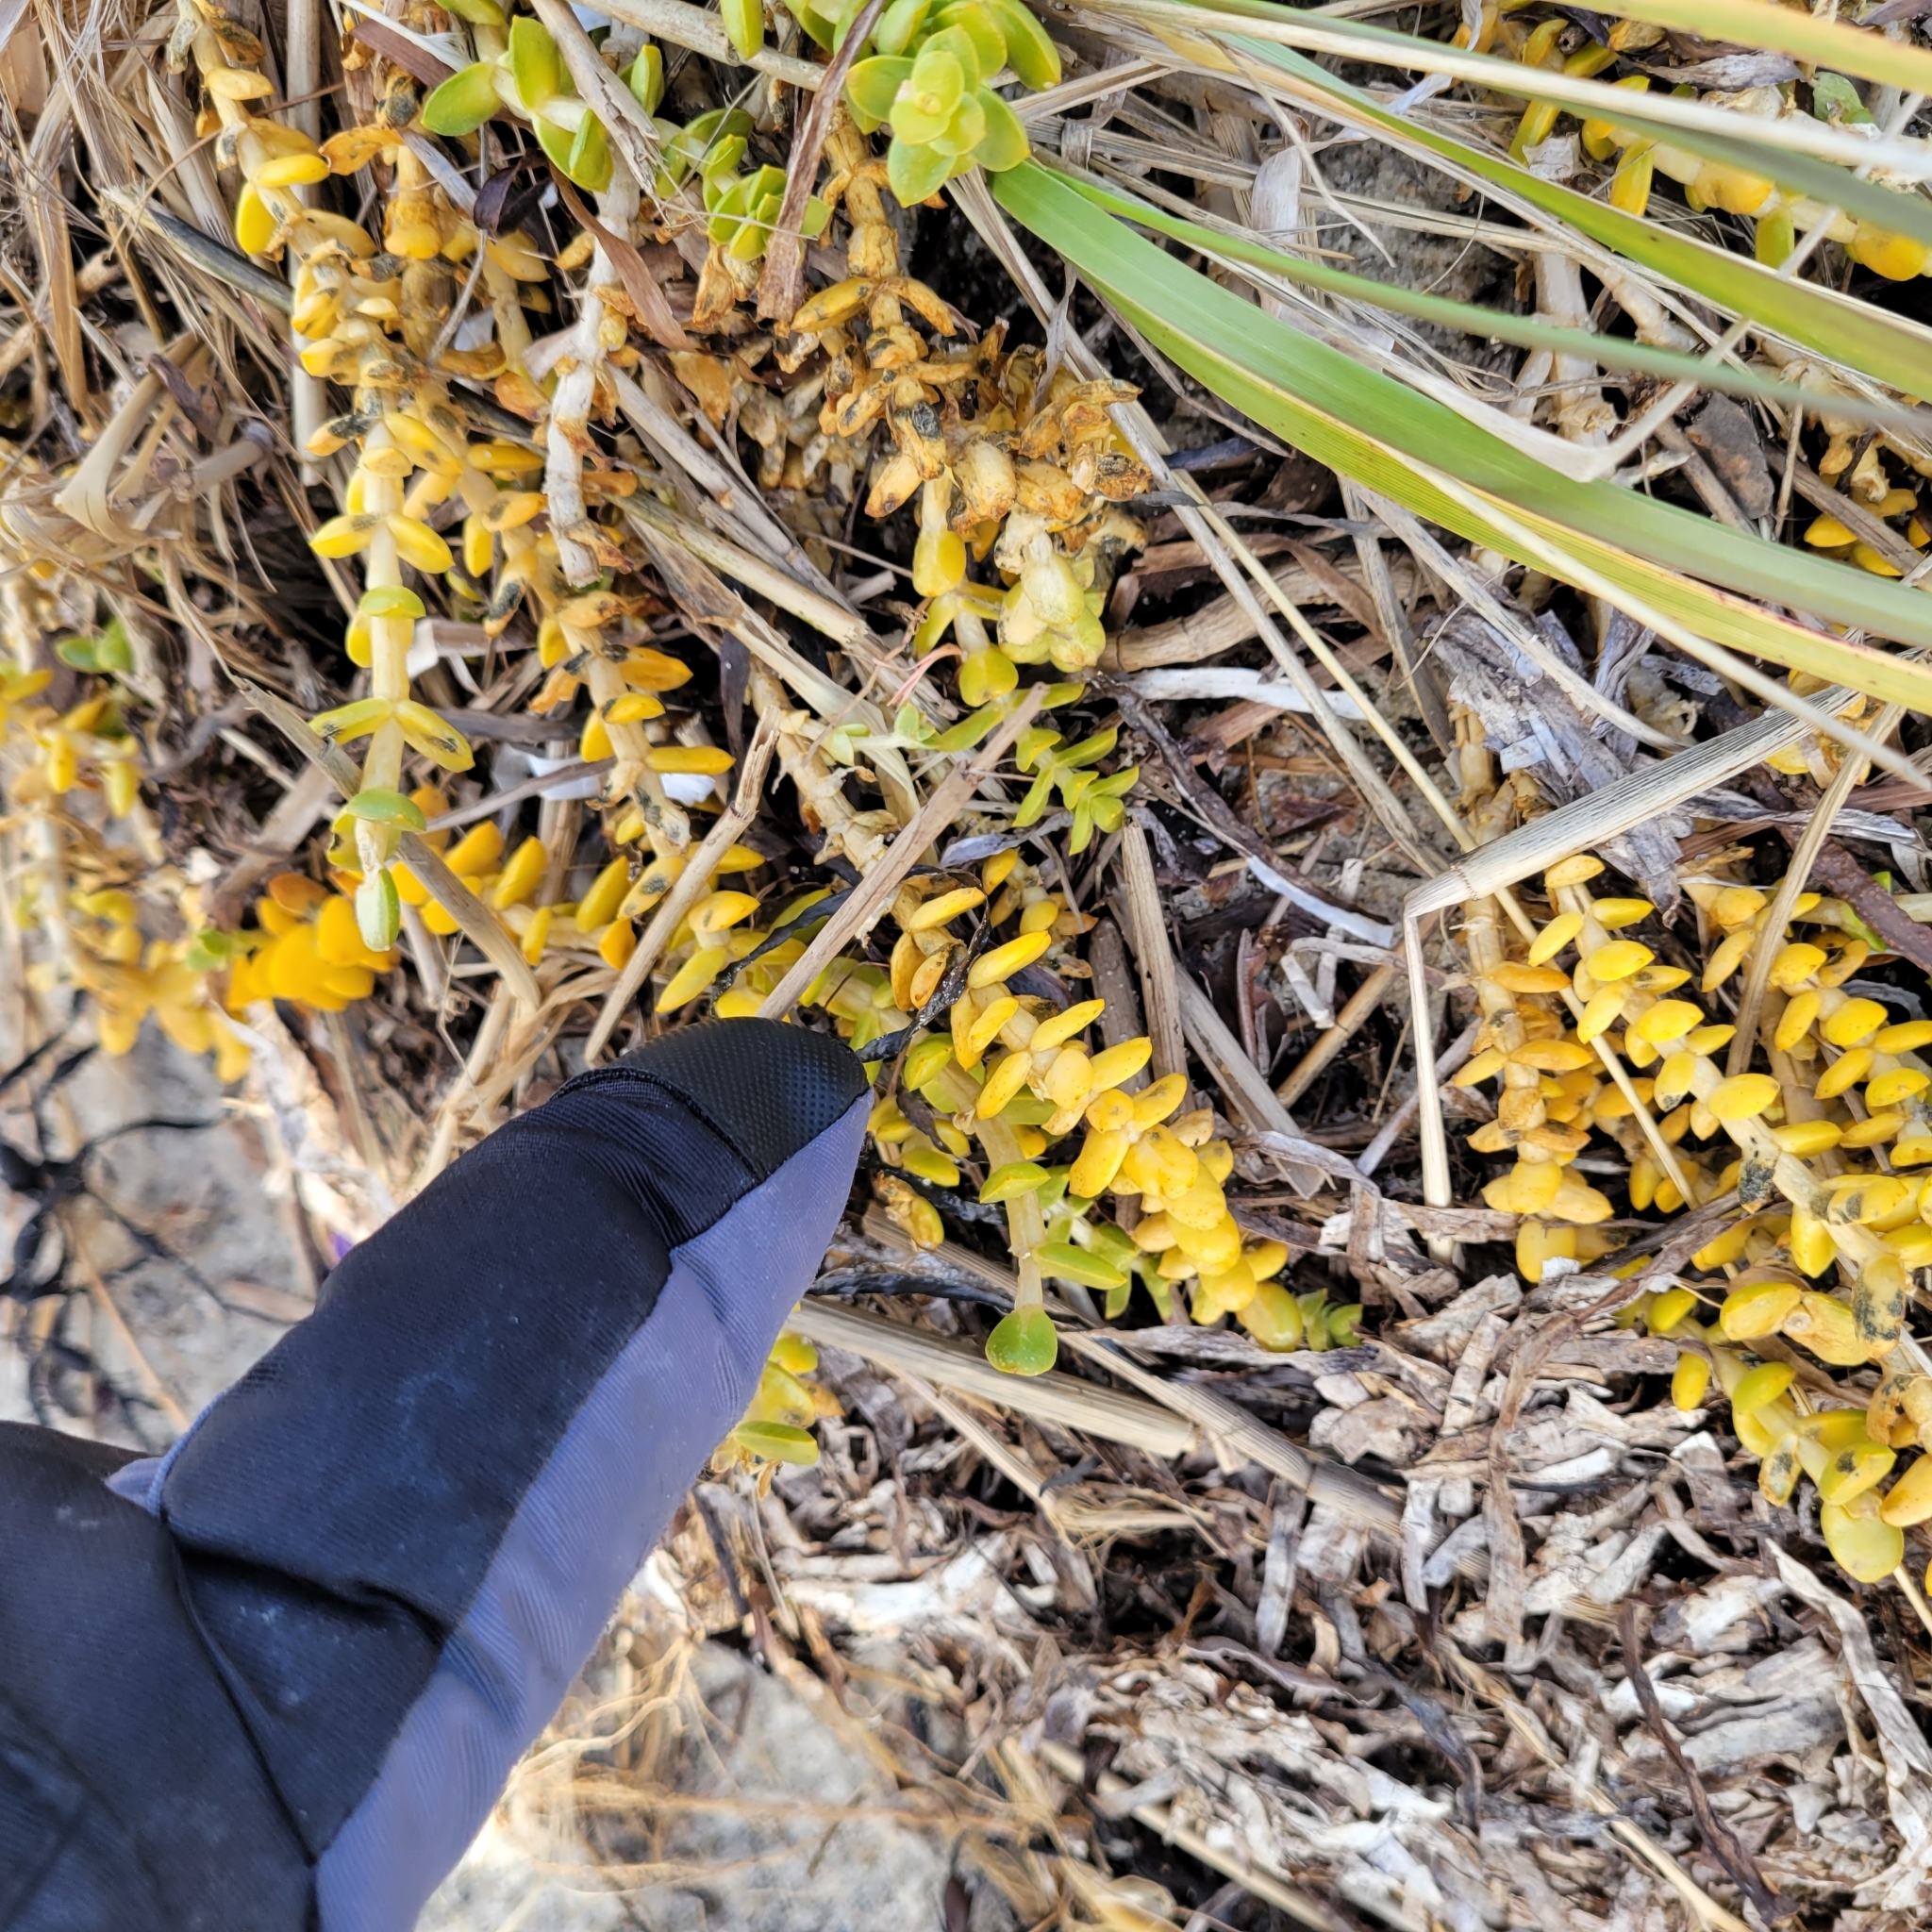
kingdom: Plantae
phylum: Tracheophyta
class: Magnoliopsida
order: Caryophyllales
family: Caryophyllaceae
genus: Honckenya
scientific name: Honckenya peploides
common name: Sea sandwort
